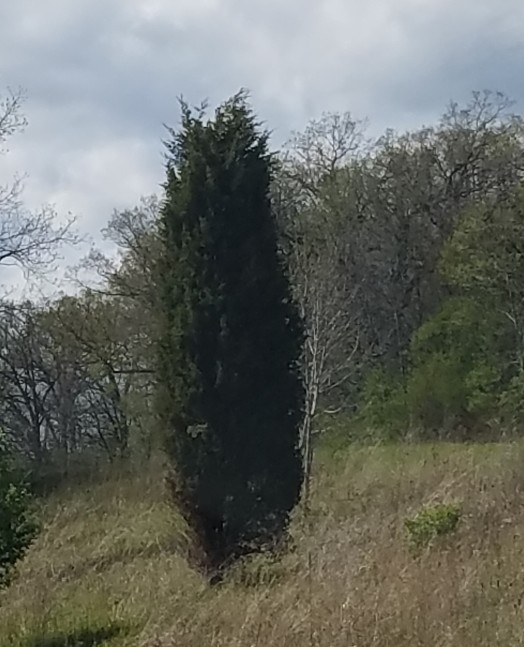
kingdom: Plantae
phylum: Tracheophyta
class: Pinopsida
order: Pinales
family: Cupressaceae
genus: Juniperus
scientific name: Juniperus virginiana
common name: Red juniper
